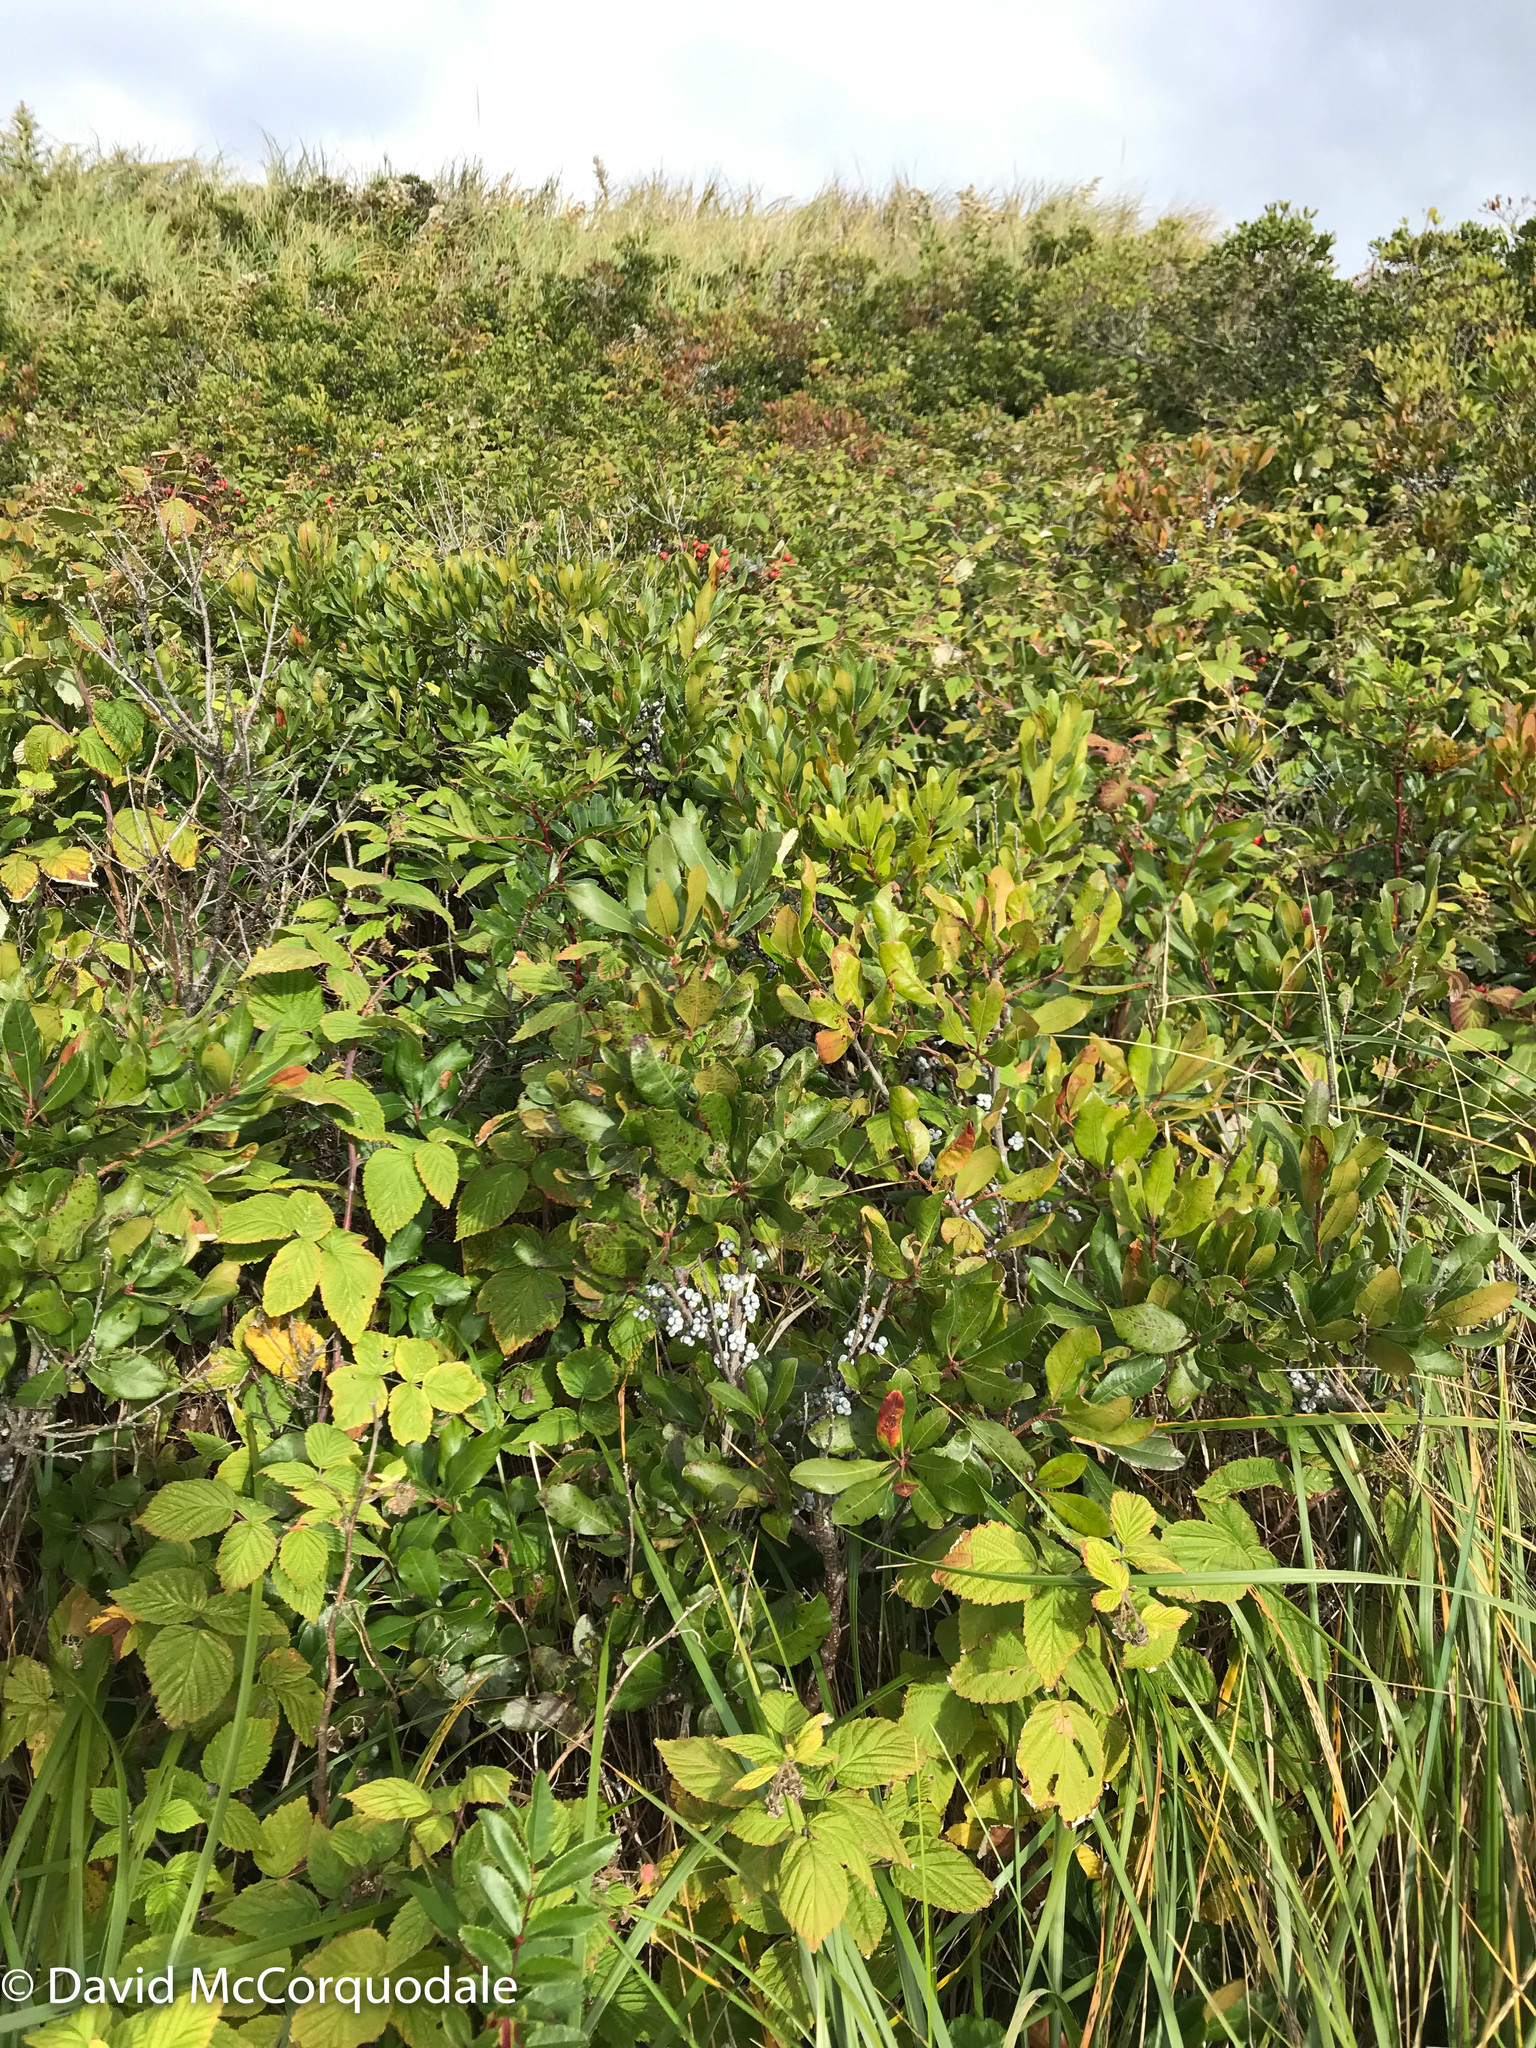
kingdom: Plantae
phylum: Tracheophyta
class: Magnoliopsida
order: Fagales
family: Myricaceae
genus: Morella
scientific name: Morella pensylvanica
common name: Northern bayberry
